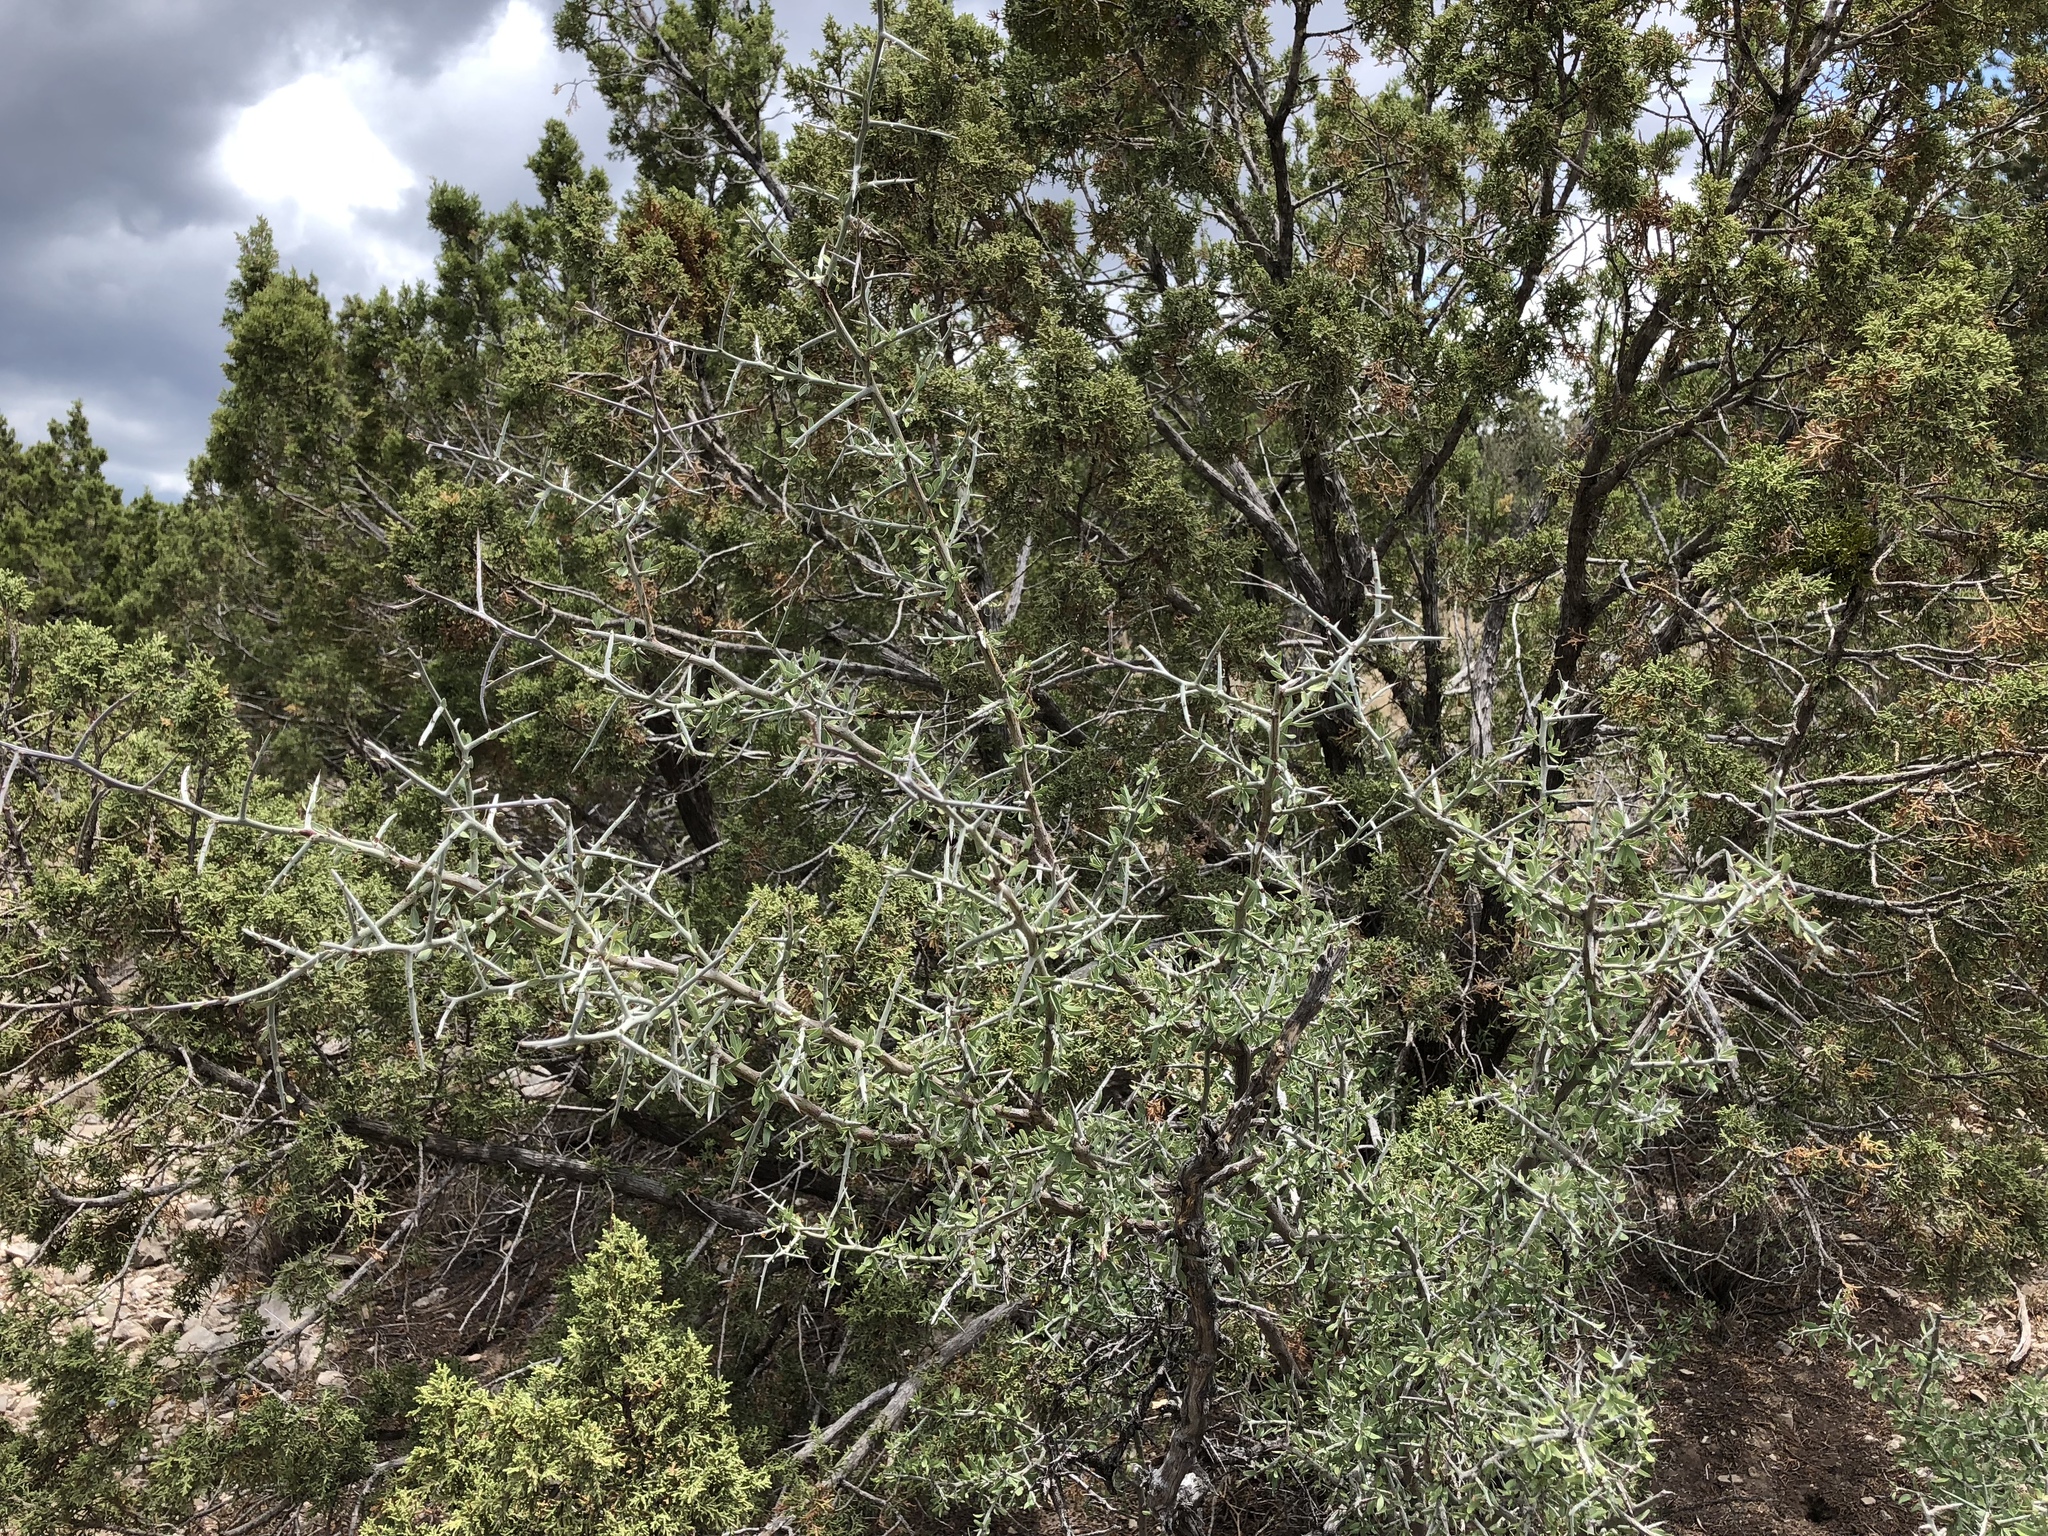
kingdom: Plantae
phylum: Tracheophyta
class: Magnoliopsida
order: Rosales
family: Rhamnaceae
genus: Sarcomphalus
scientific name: Sarcomphalus obtusifolius
